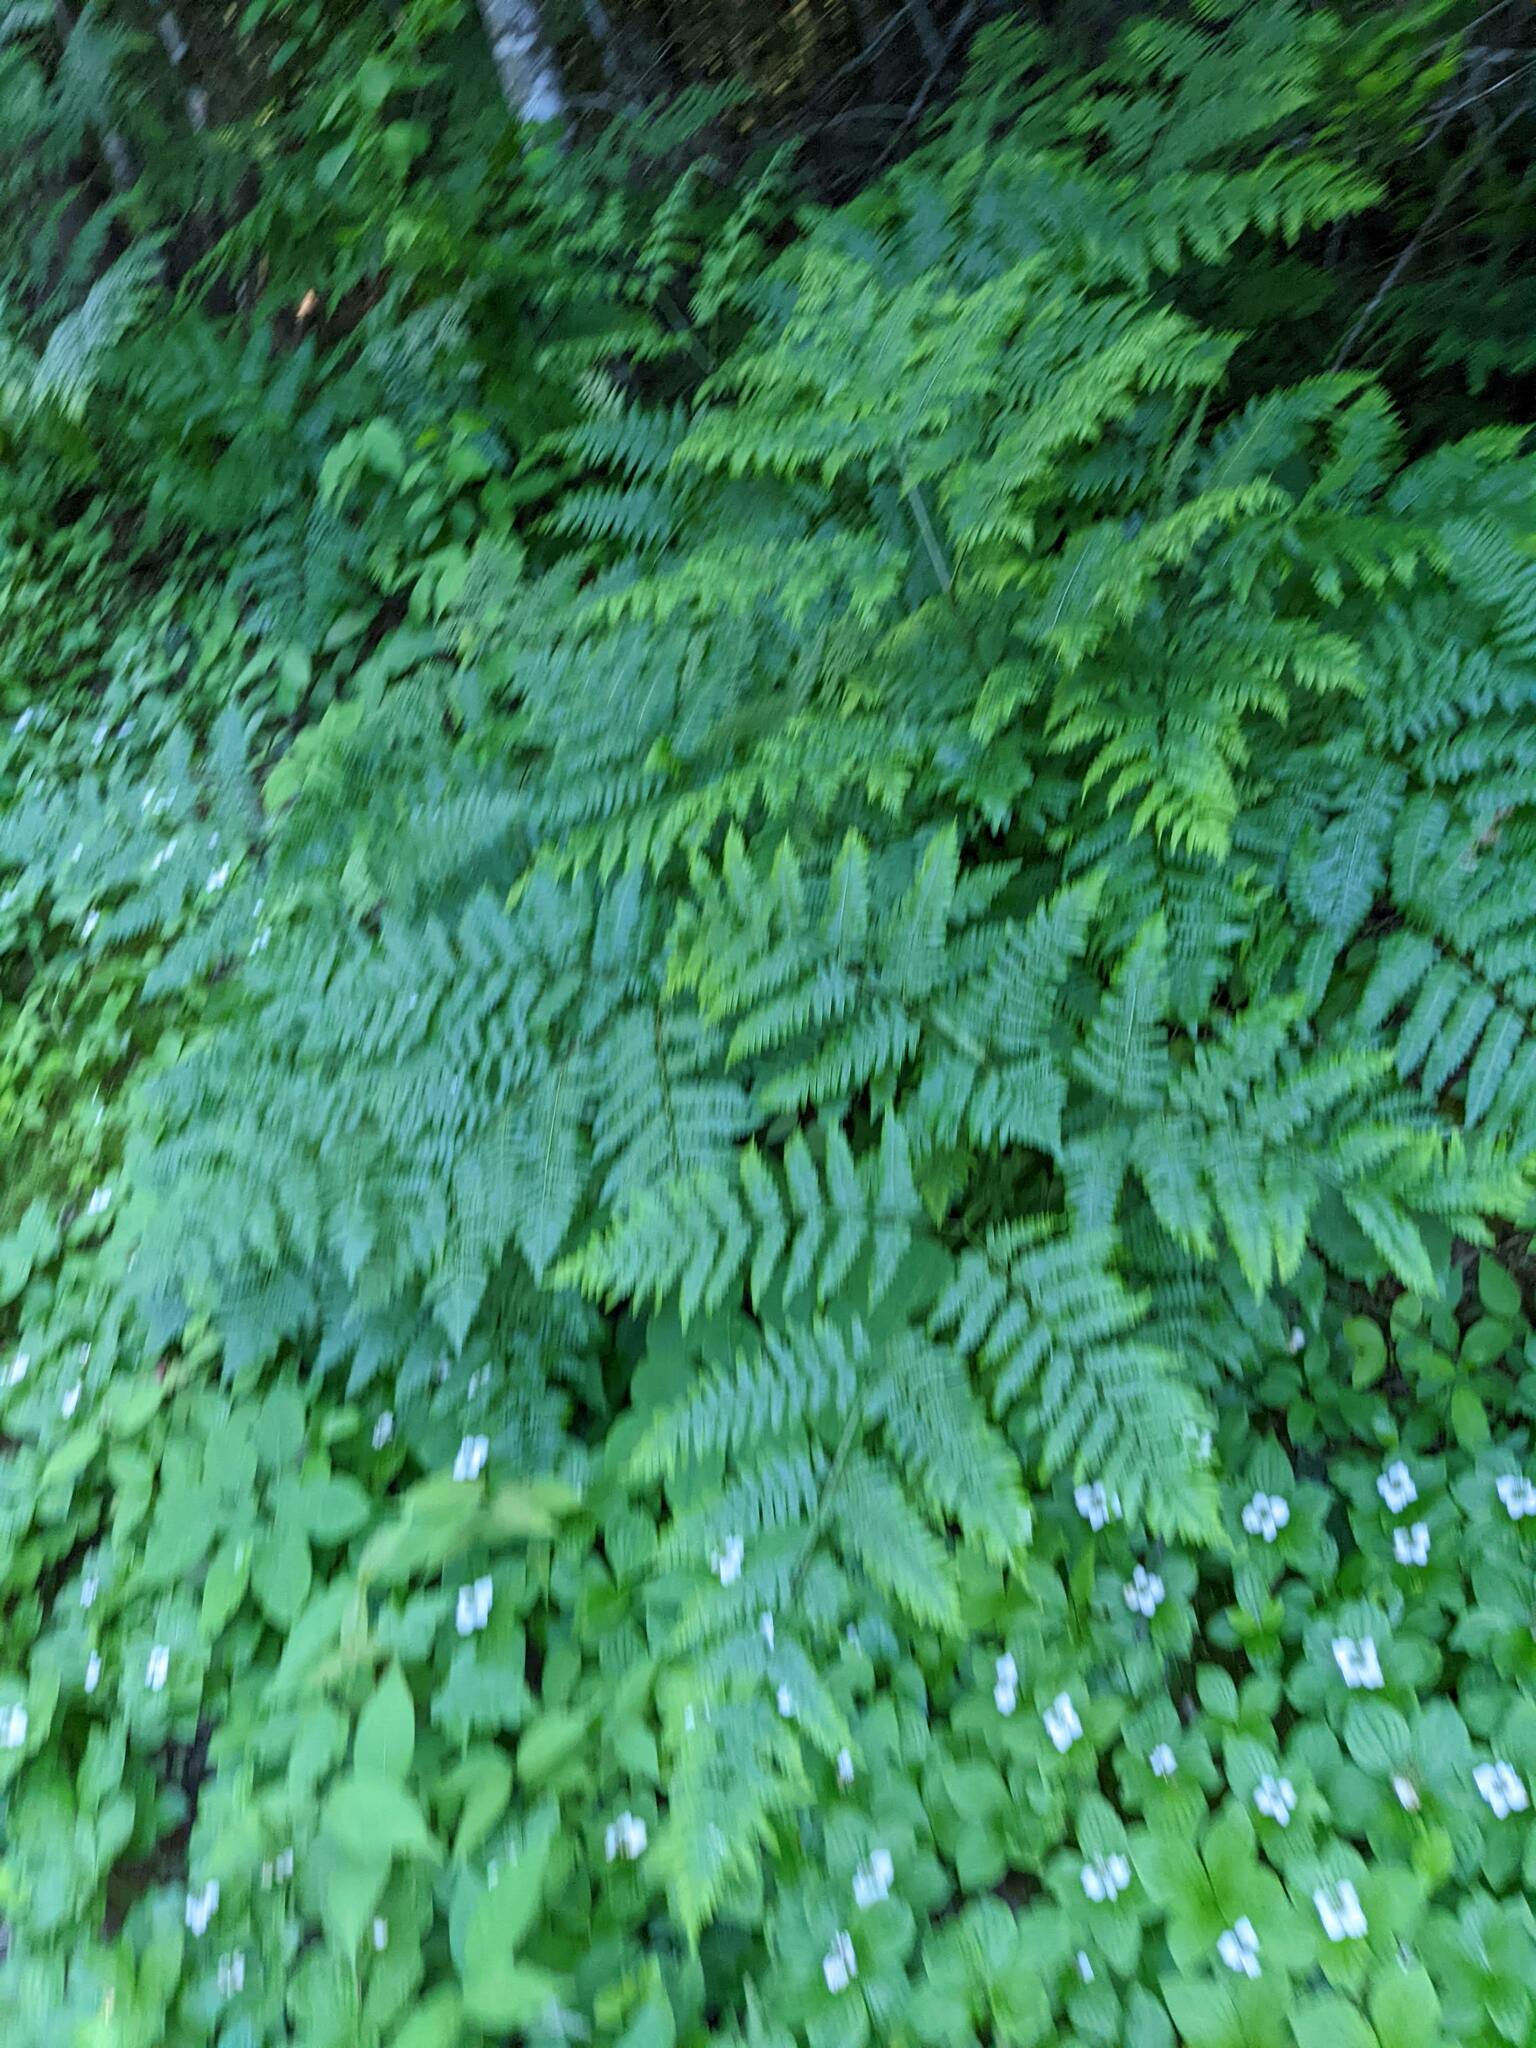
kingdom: Plantae
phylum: Tracheophyta
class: Polypodiopsida
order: Polypodiales
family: Dennstaedtiaceae
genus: Pteridium
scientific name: Pteridium aquilinum
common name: Bracken
